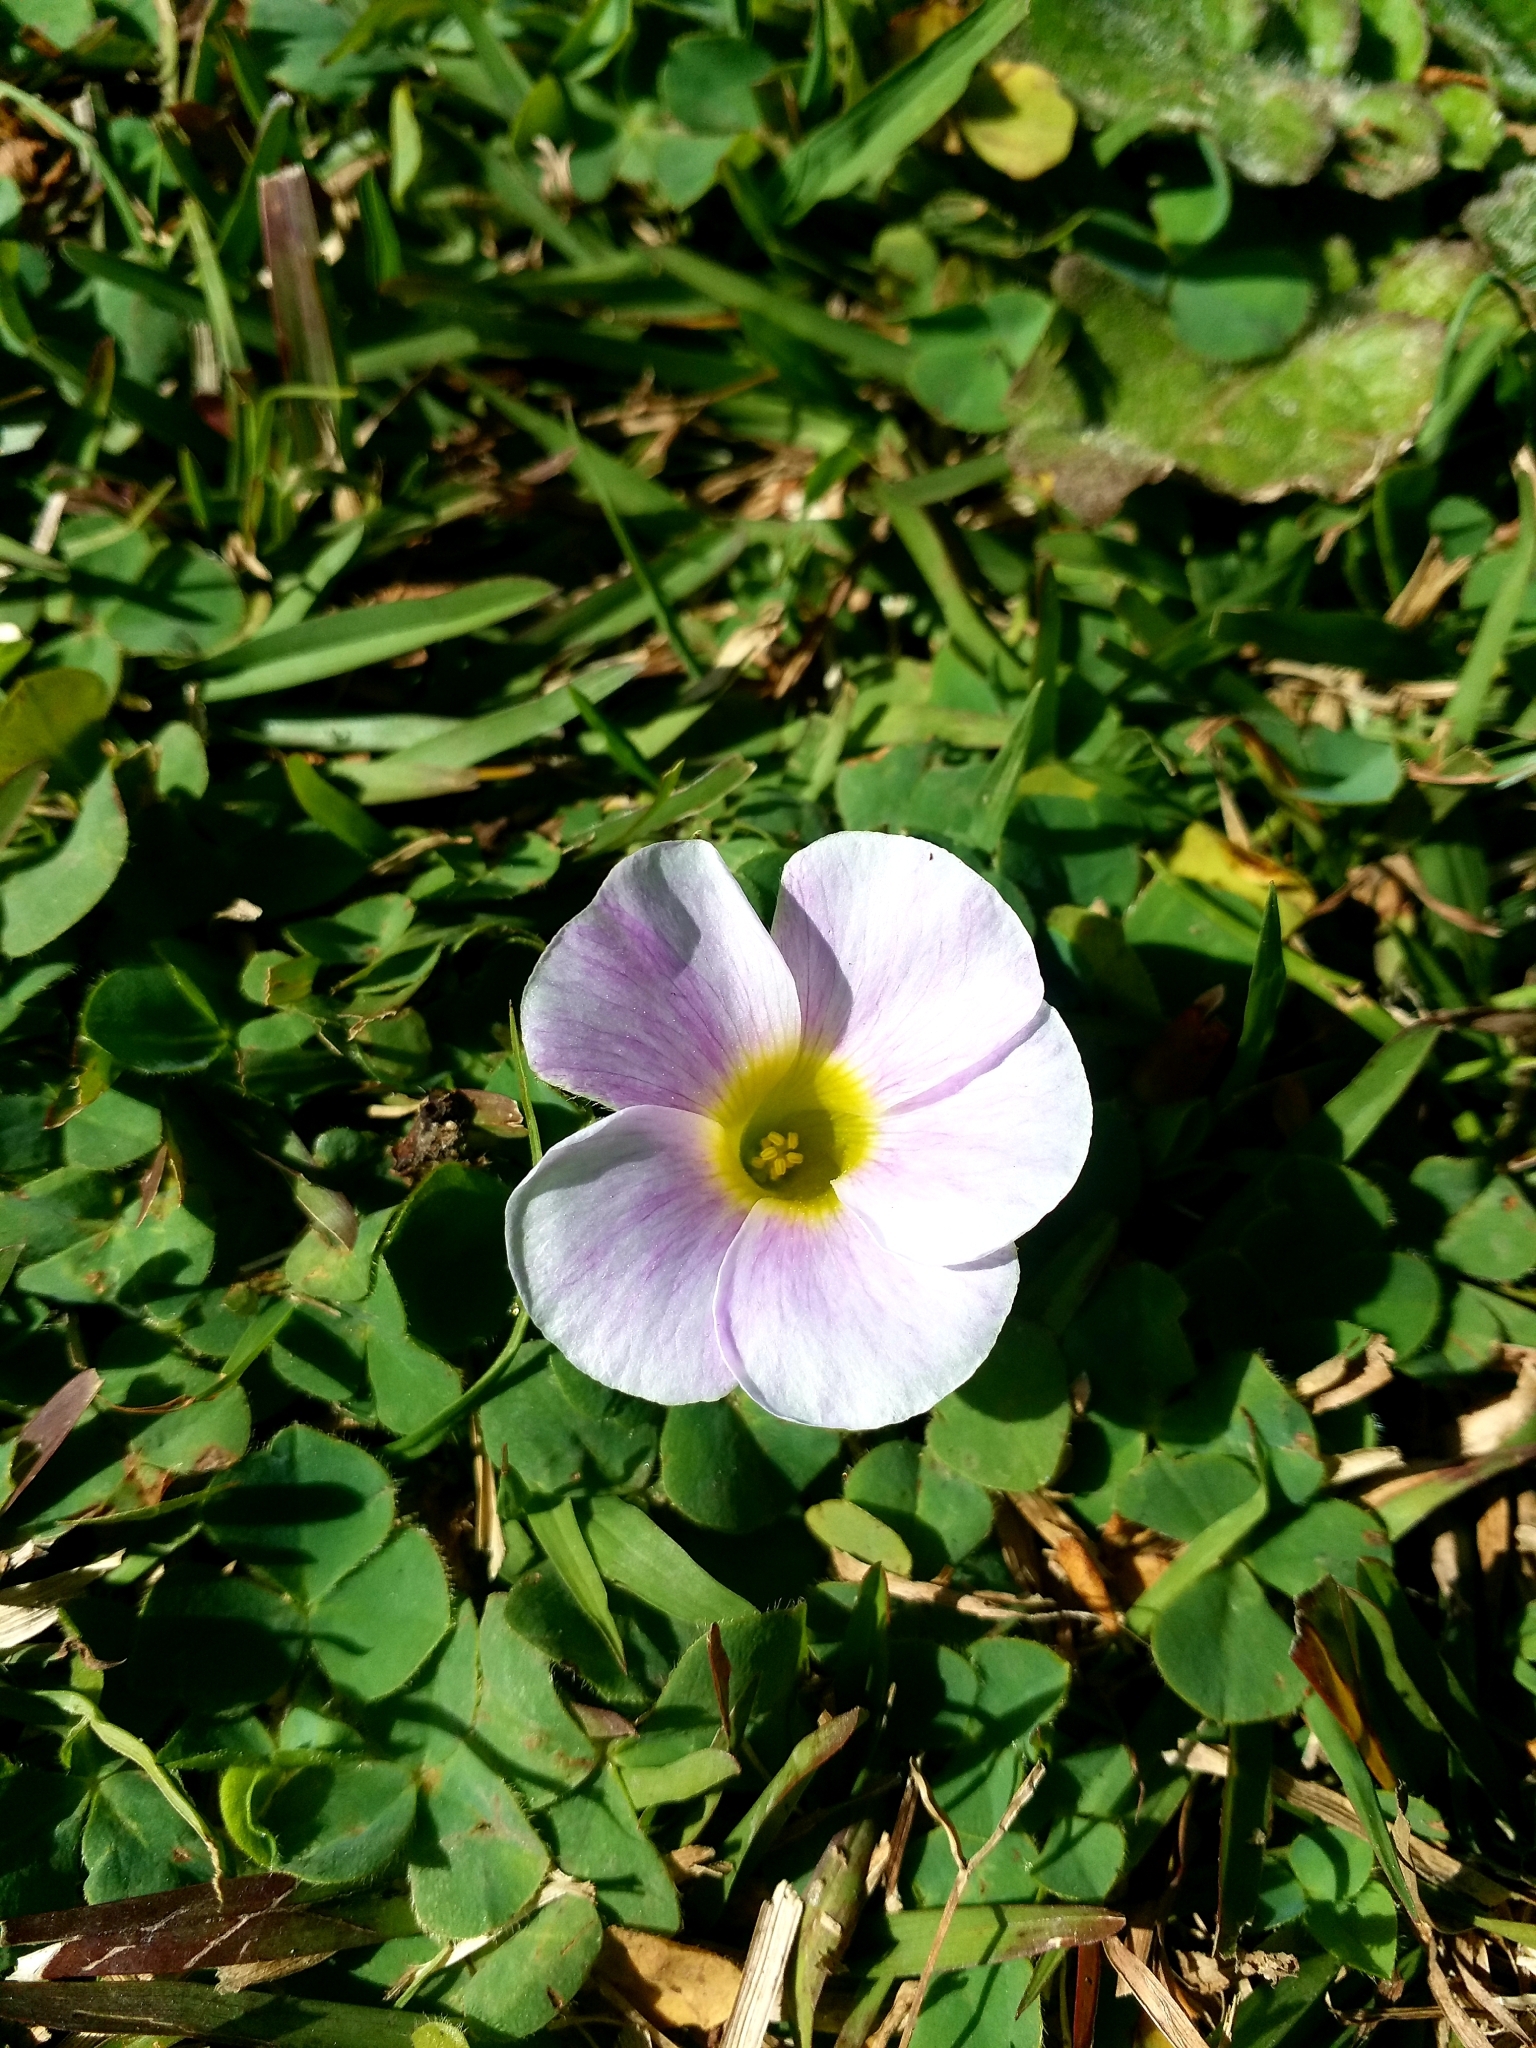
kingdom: Plantae
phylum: Tracheophyta
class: Magnoliopsida
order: Oxalidales
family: Oxalidaceae
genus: Oxalis
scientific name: Oxalis purpurea
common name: Purple woodsorrel
